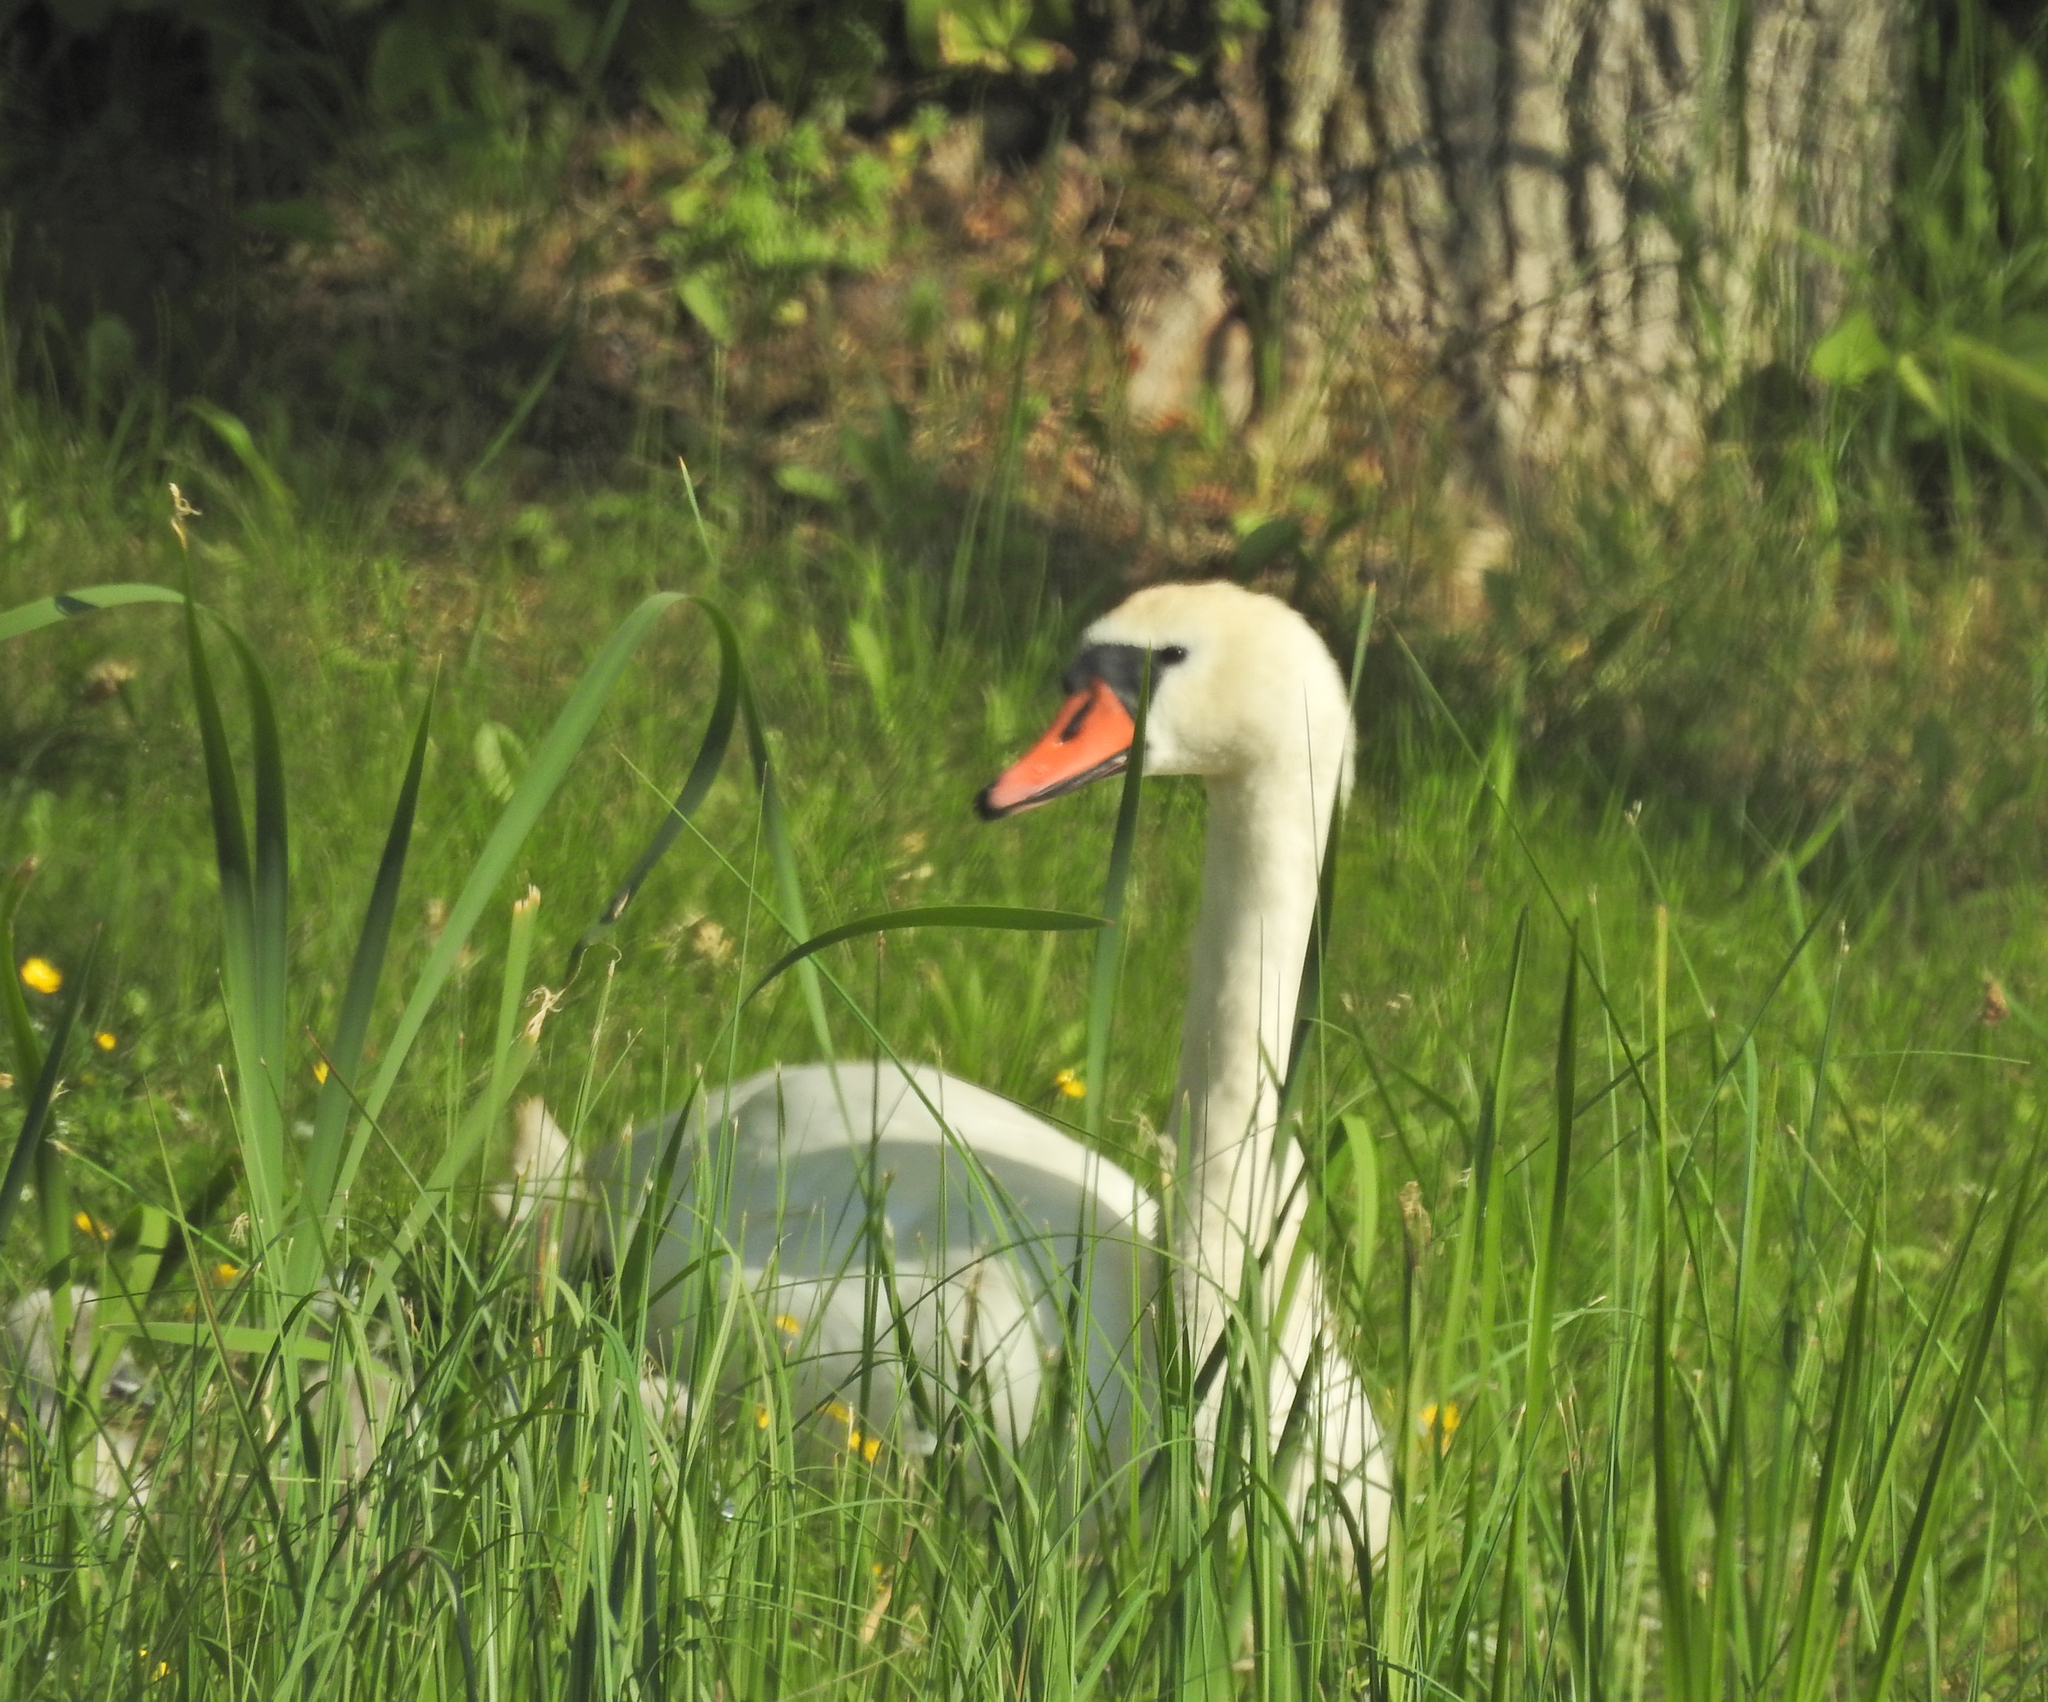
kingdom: Animalia
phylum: Chordata
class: Aves
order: Anseriformes
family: Anatidae
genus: Cygnus
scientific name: Cygnus olor
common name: Mute swan
